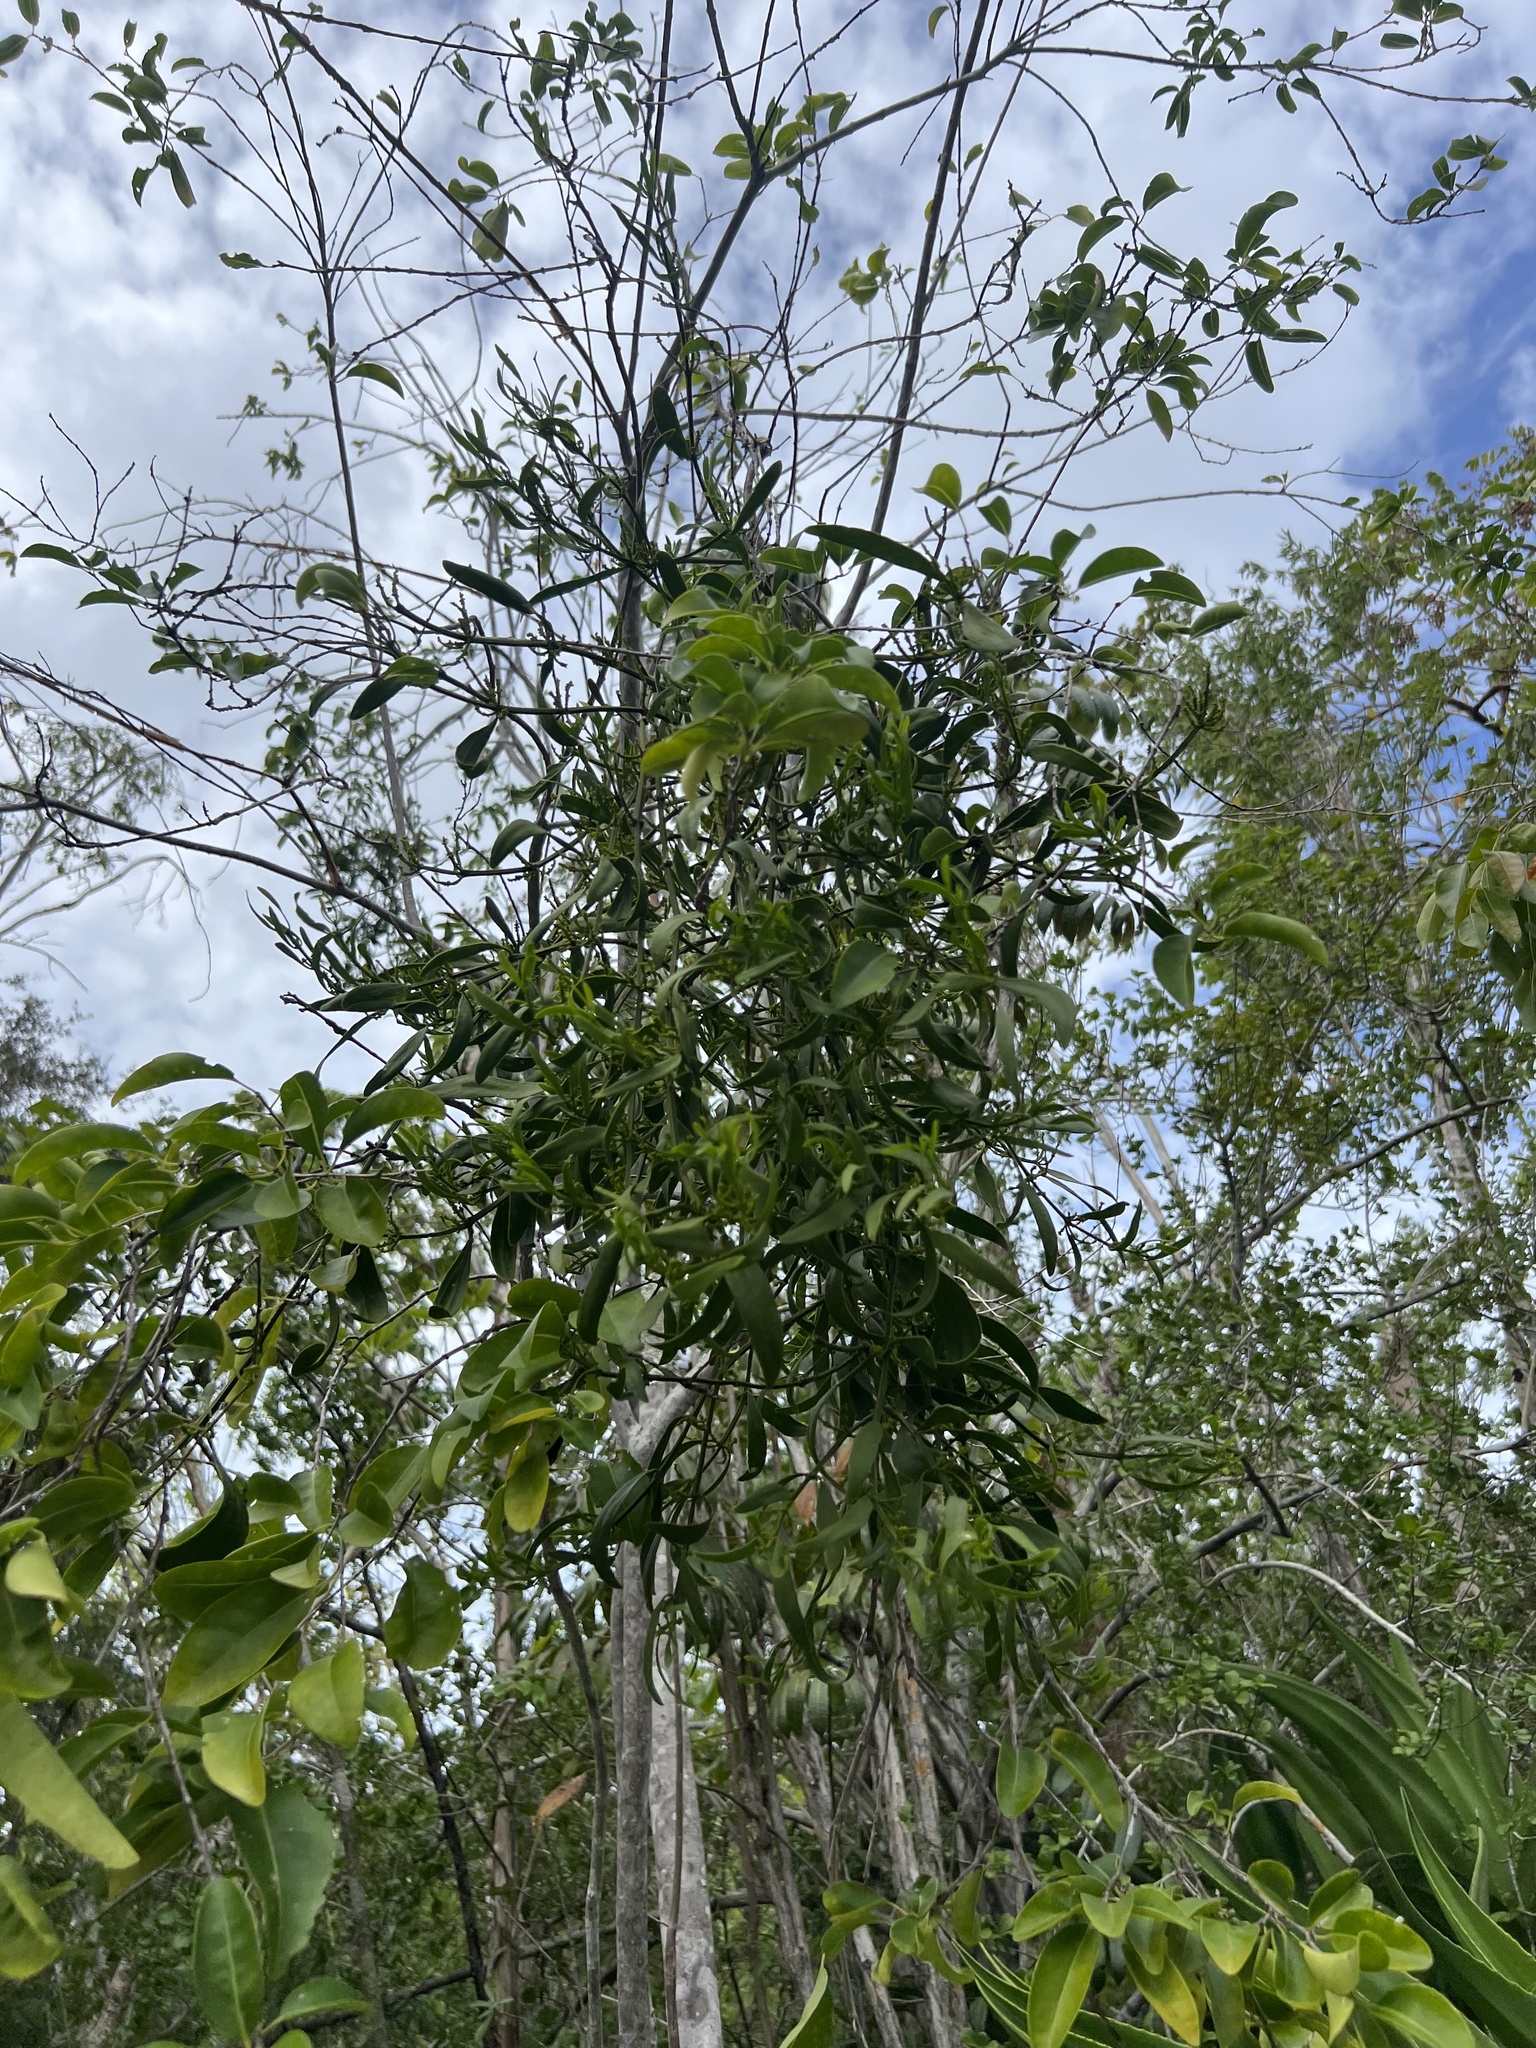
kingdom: Plantae
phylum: Tracheophyta
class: Magnoliopsida
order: Santalales
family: Viscaceae
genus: Phoradendron
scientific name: Phoradendron quadrangulare
